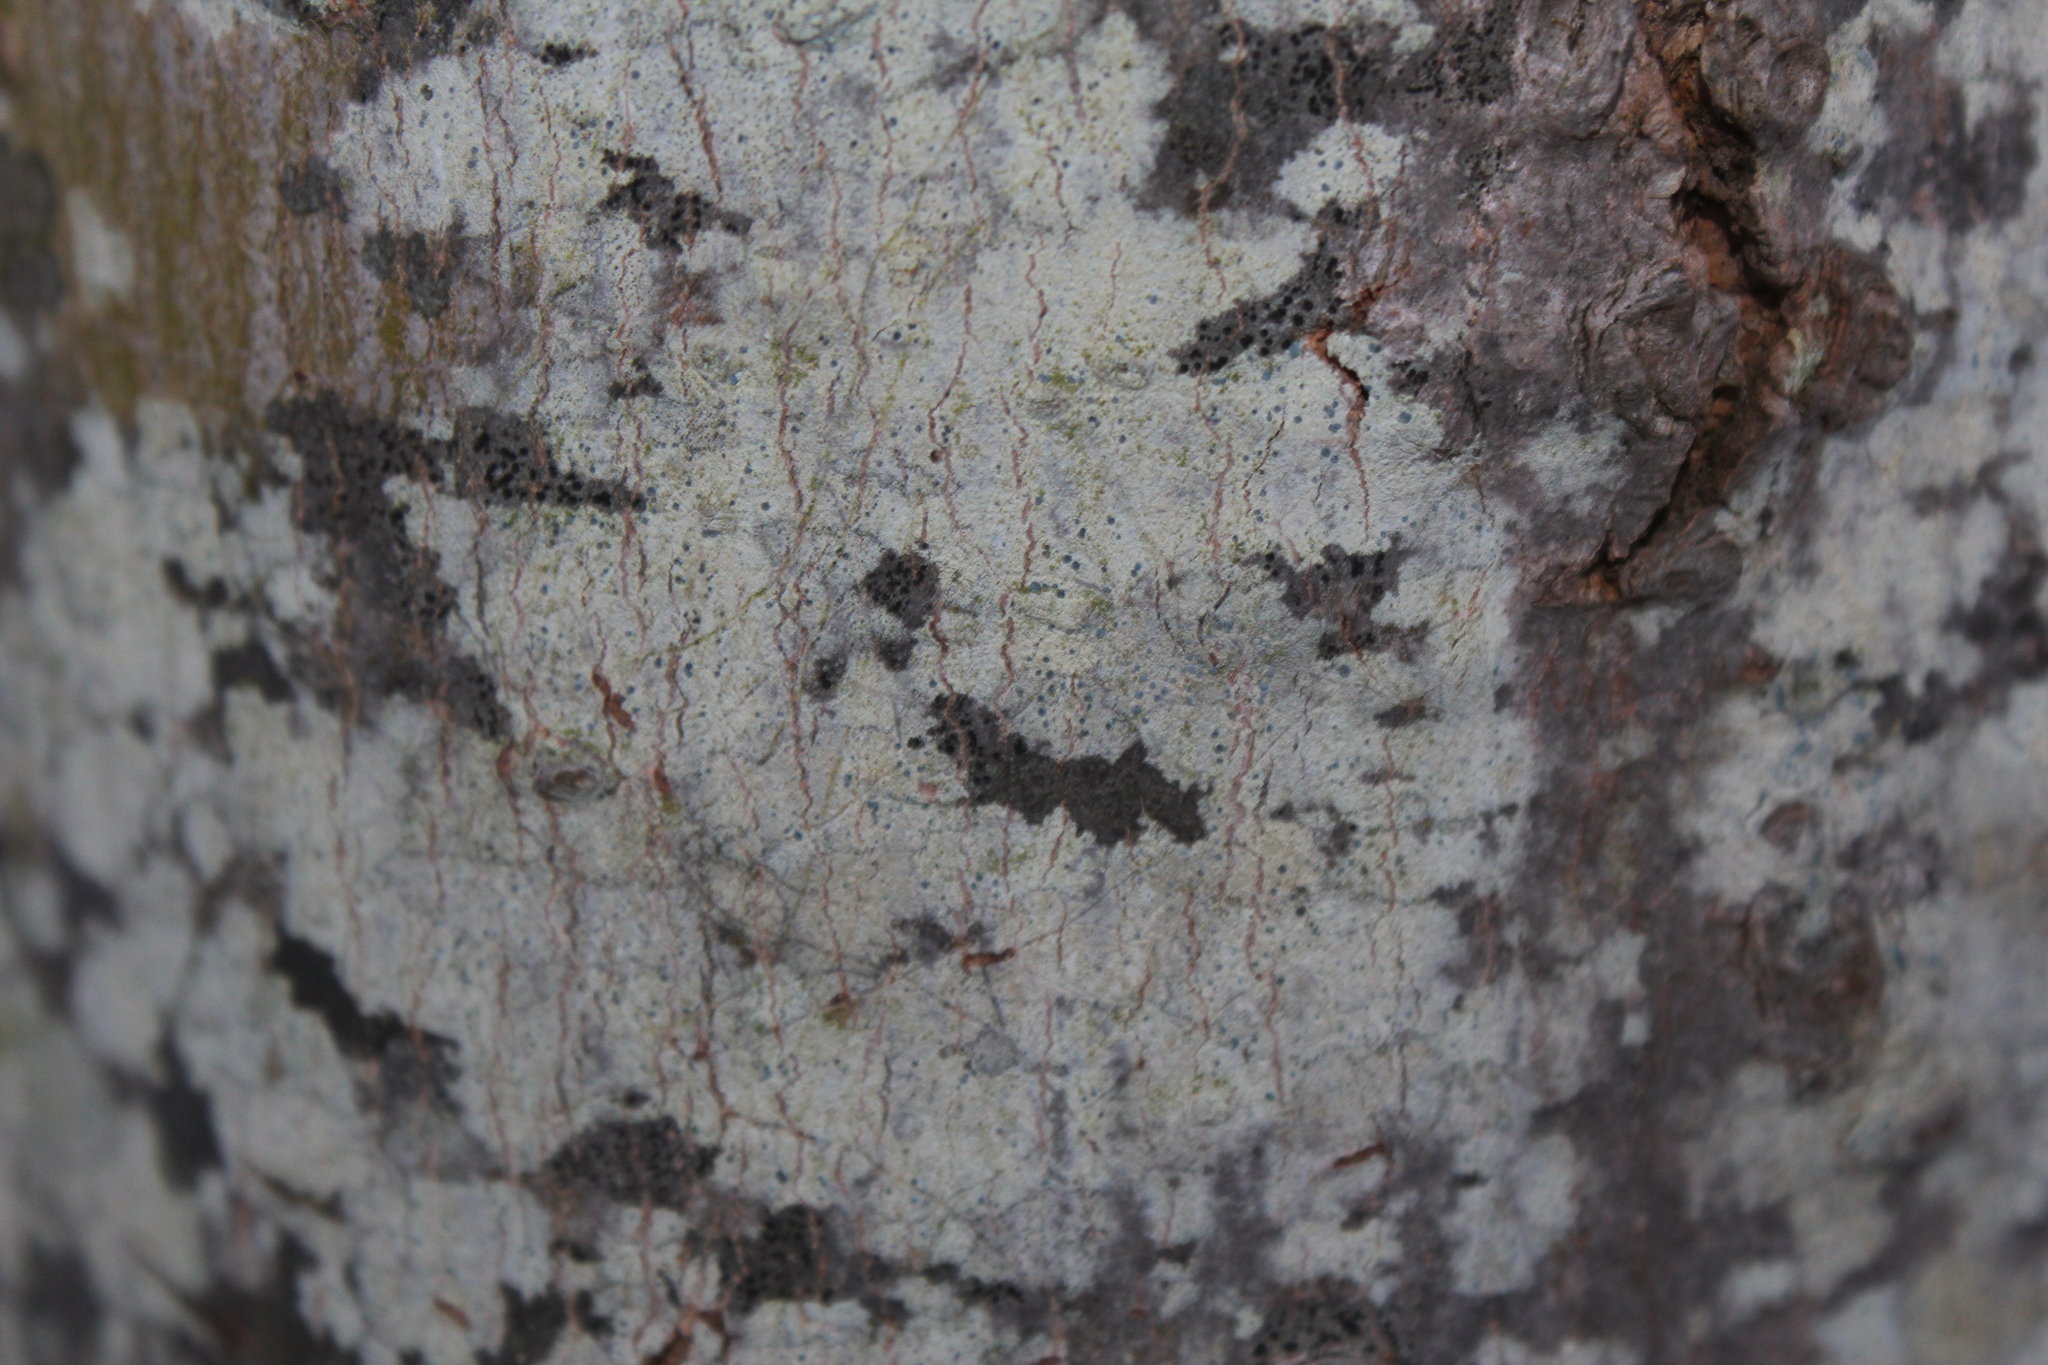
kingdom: Fungi
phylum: Ascomycota
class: Arthoniomycetes
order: Arthoniales
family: Chrysotrichaceae
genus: Chrysothrix
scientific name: Chrysothrix caesia
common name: Frosted comma lichen
